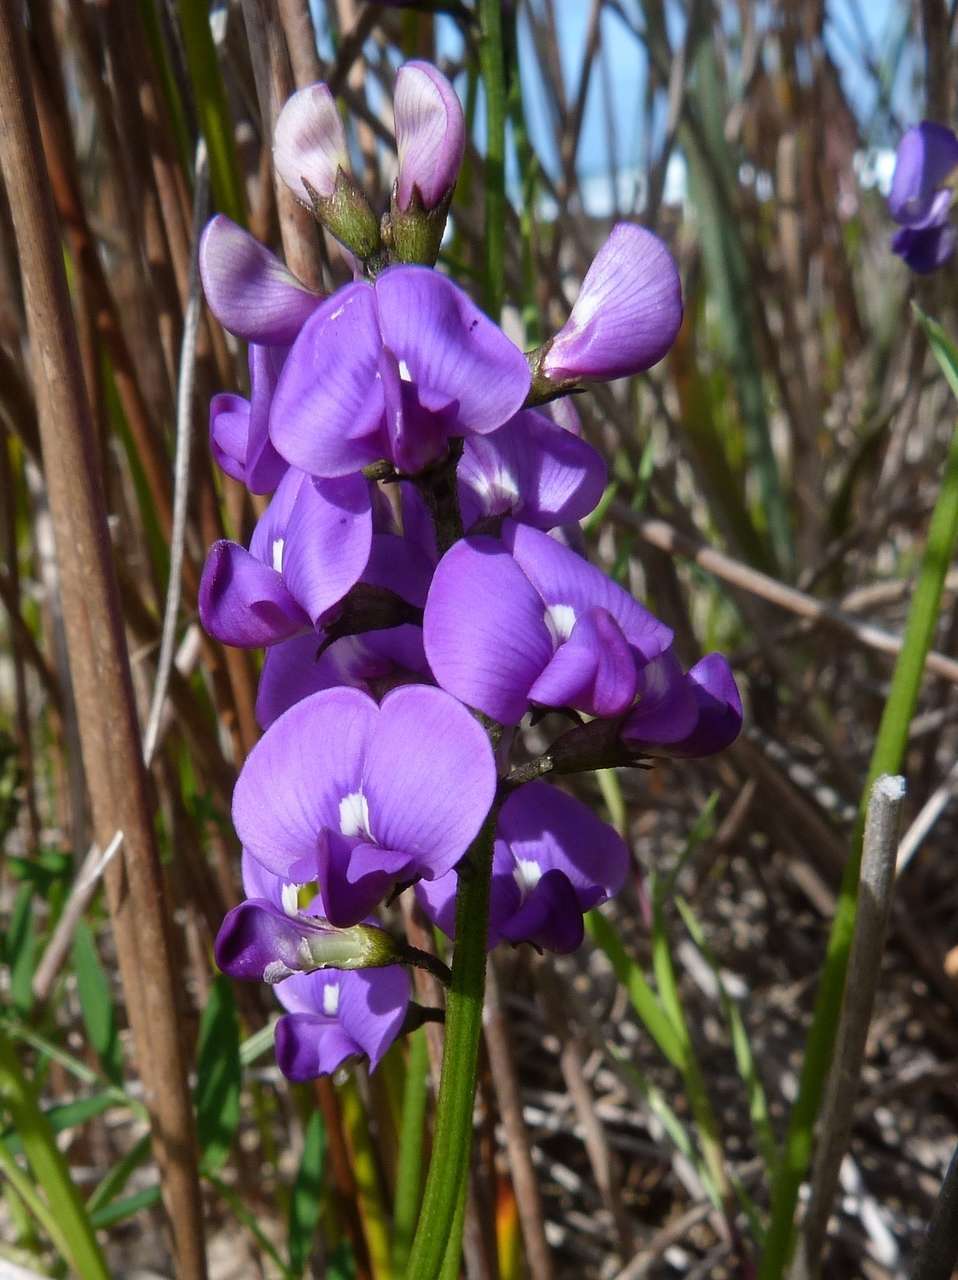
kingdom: Plantae
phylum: Tracheophyta
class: Magnoliopsida
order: Fabales
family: Fabaceae
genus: Swainsona
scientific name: Swainsona lessertiifolia
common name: Bog-pea
